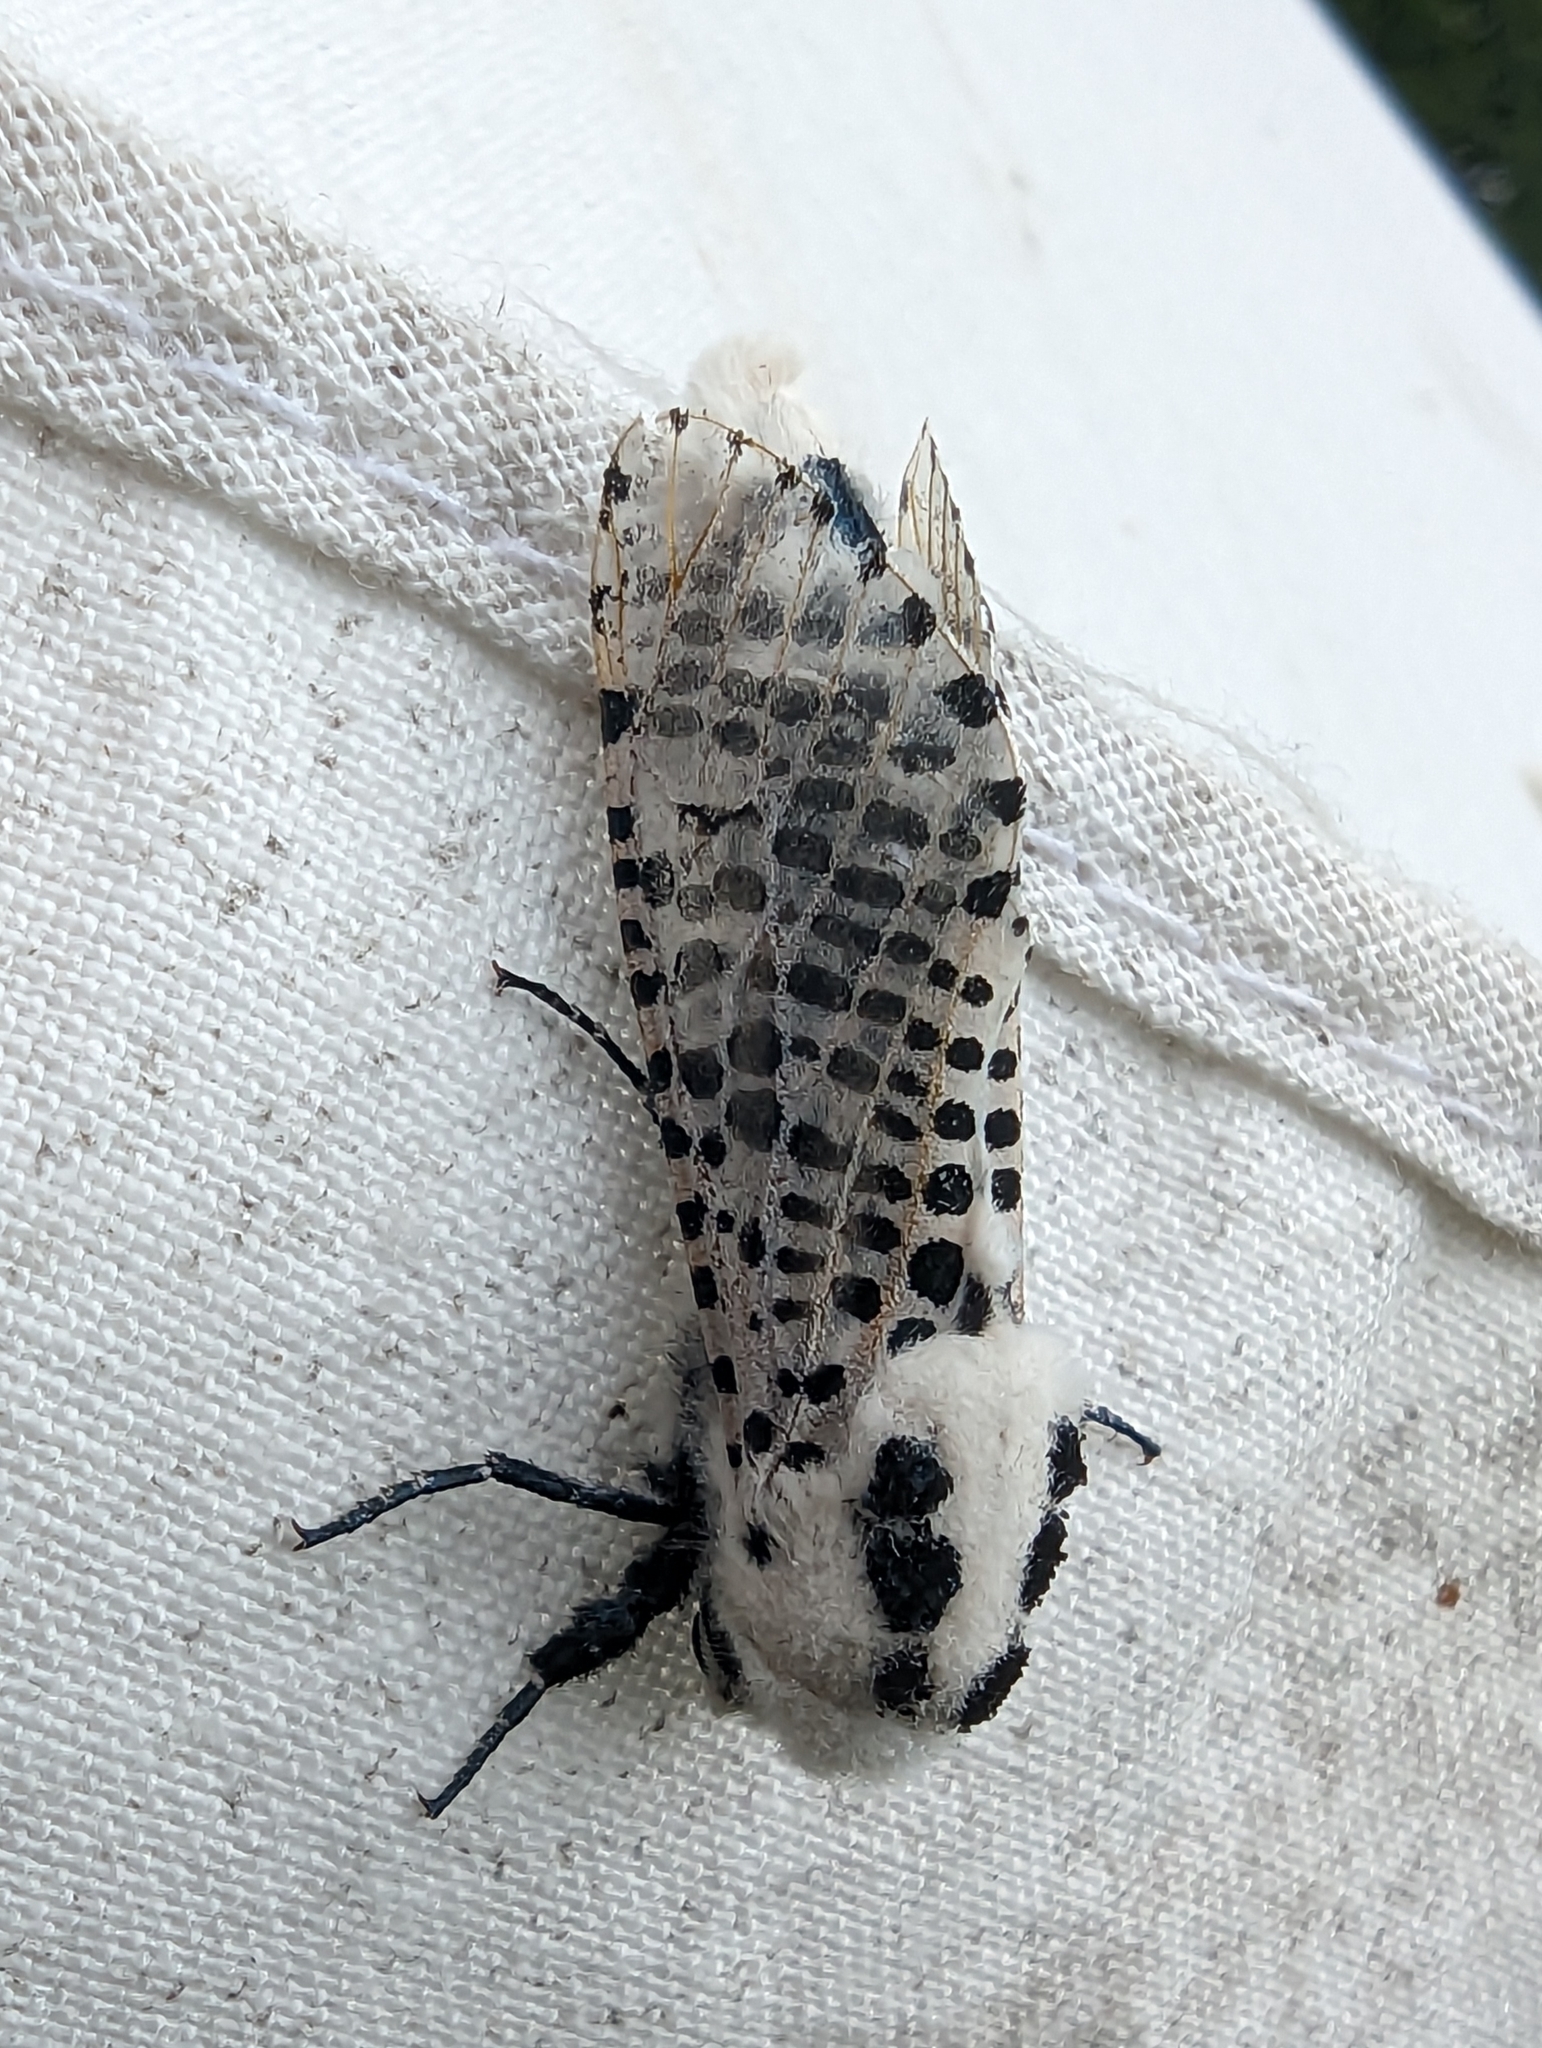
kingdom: Animalia
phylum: Arthropoda
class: Insecta
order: Lepidoptera
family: Cossidae
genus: Zeuzera
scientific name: Zeuzera pyrina
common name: Leopard moth
